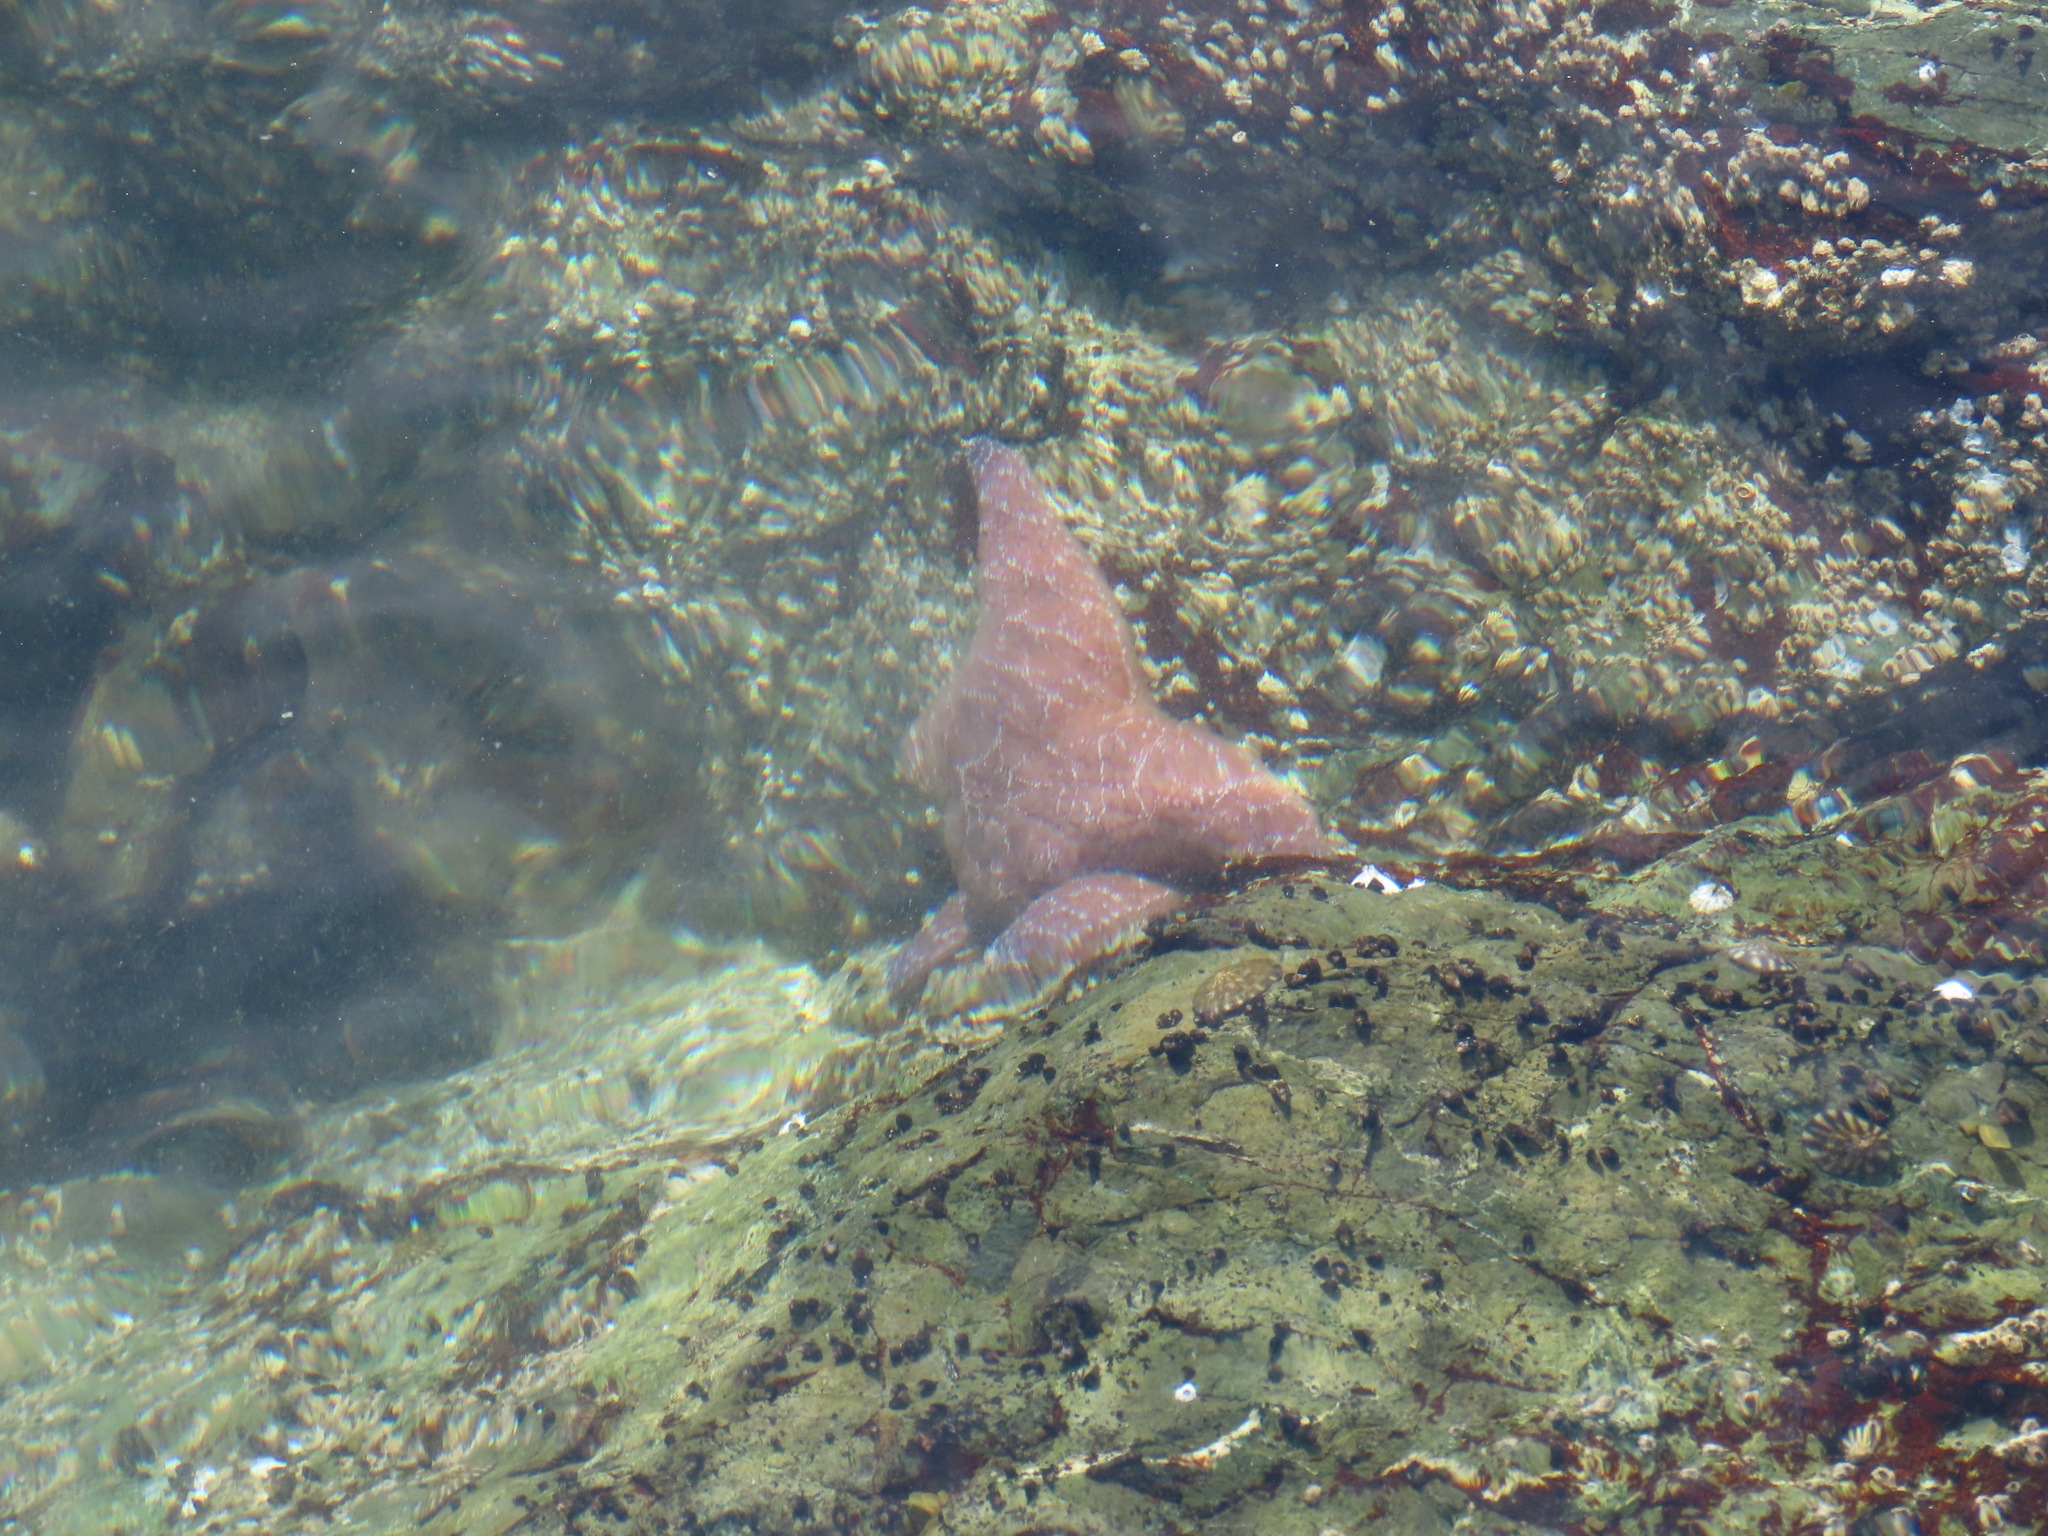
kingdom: Animalia
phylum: Echinodermata
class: Asteroidea
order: Forcipulatida
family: Asteriidae
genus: Pisaster
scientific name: Pisaster ochraceus
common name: Ochre stars
